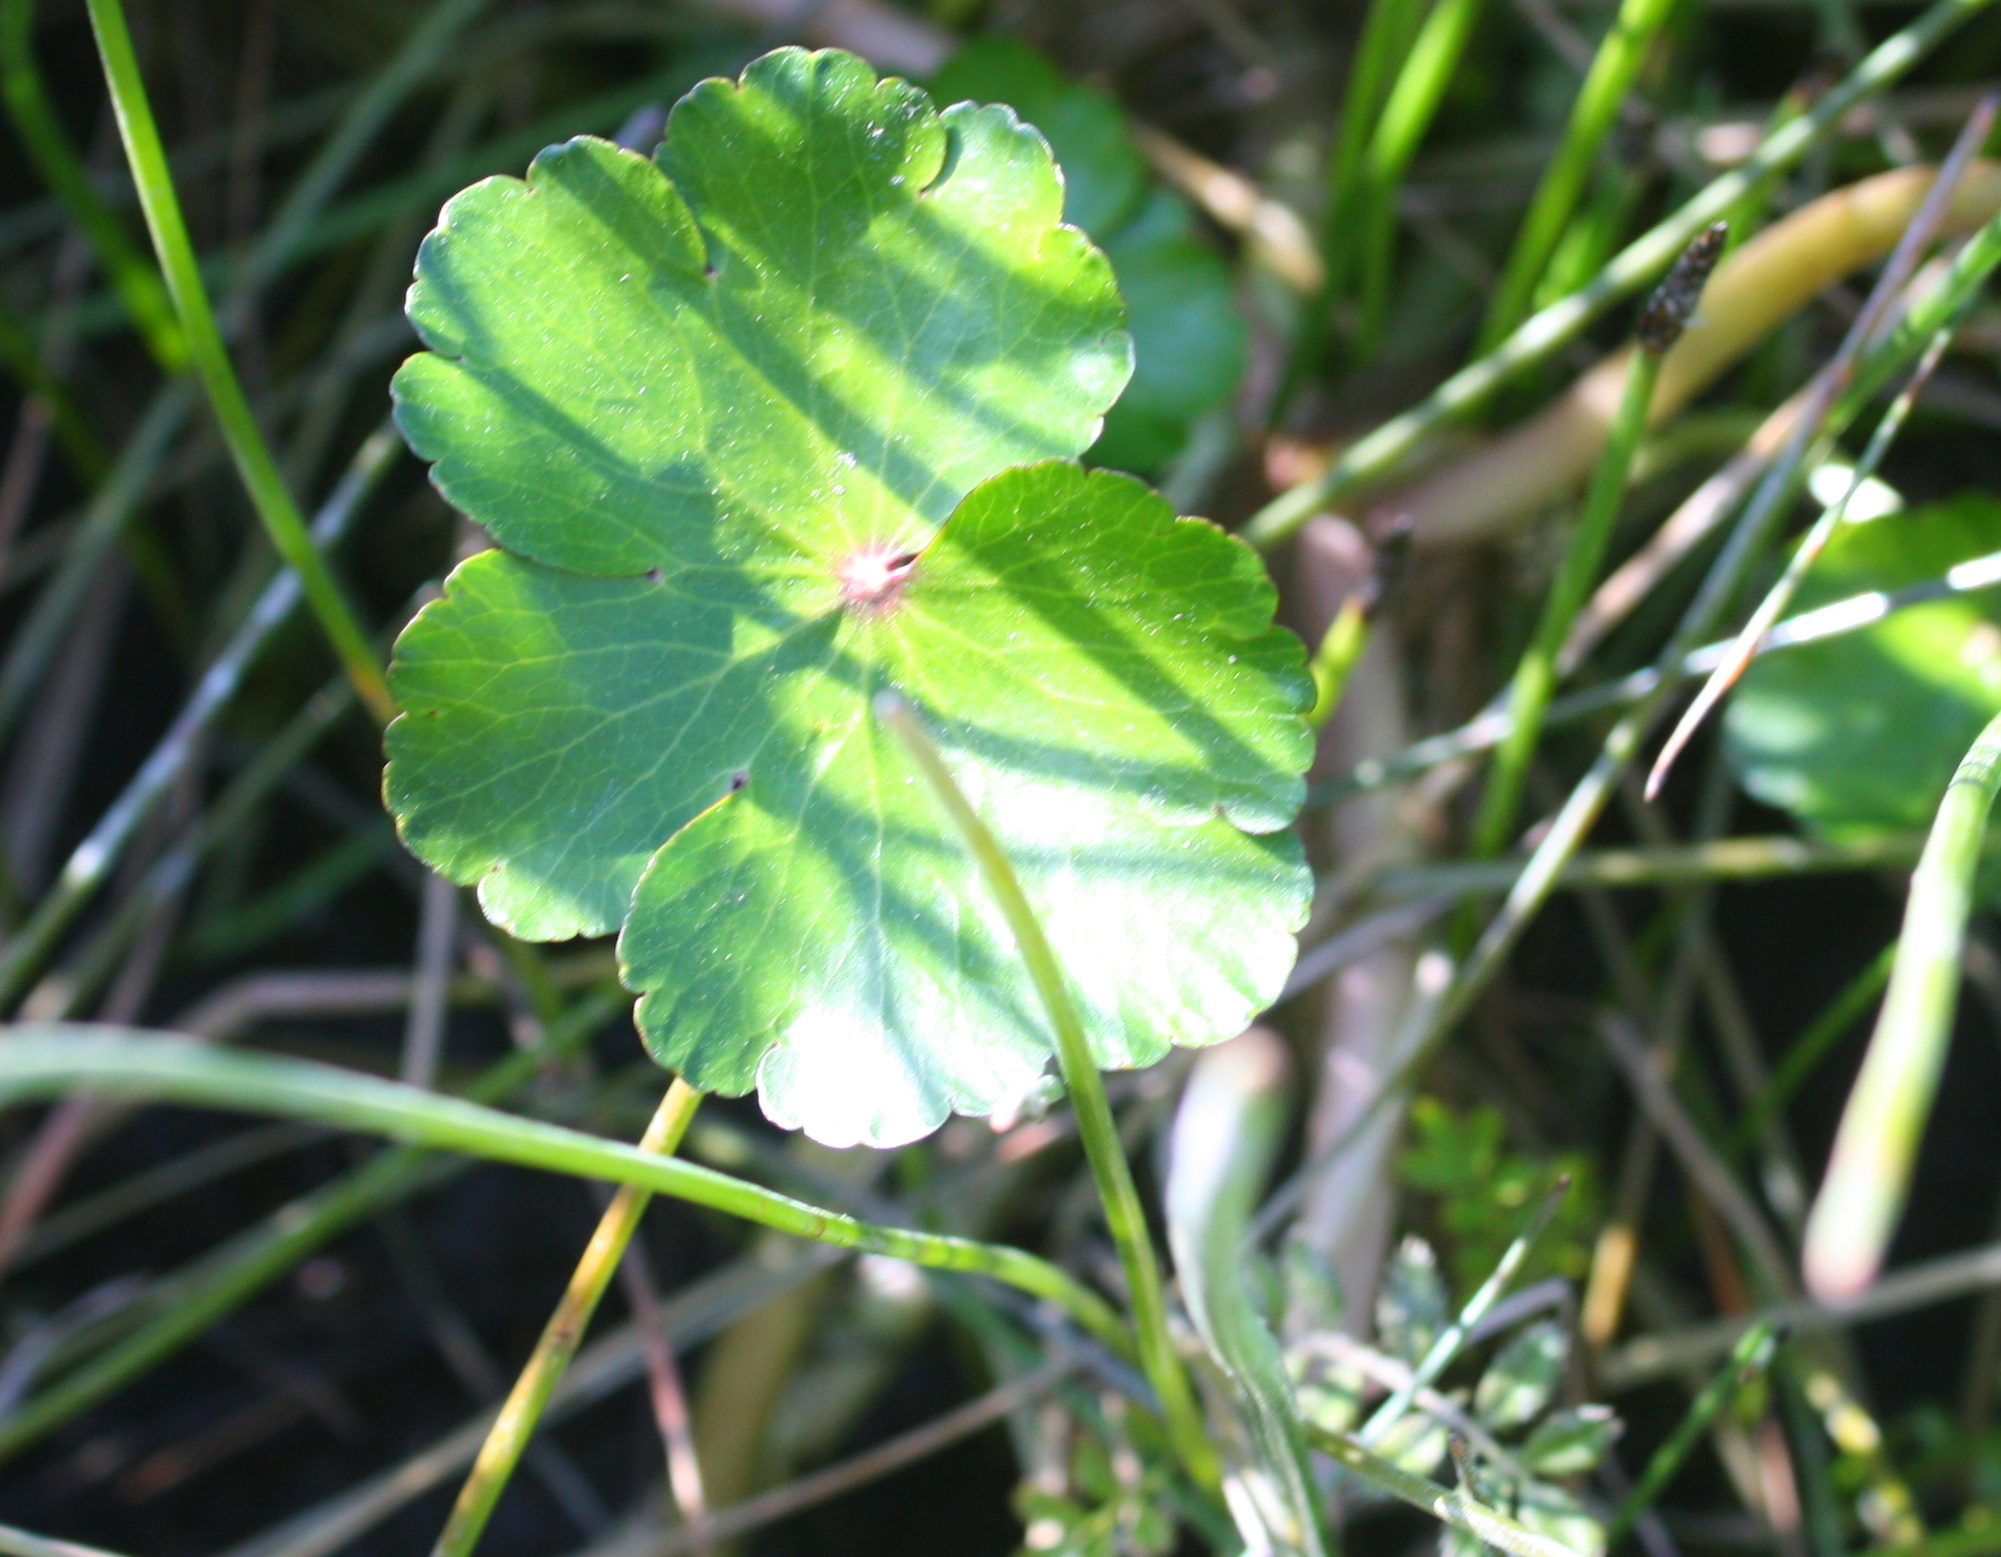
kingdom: Plantae
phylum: Tracheophyta
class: Magnoliopsida
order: Apiales
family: Araliaceae
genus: Hydrocotyle
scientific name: Hydrocotyle ranunculoides
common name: Floating pennywort
